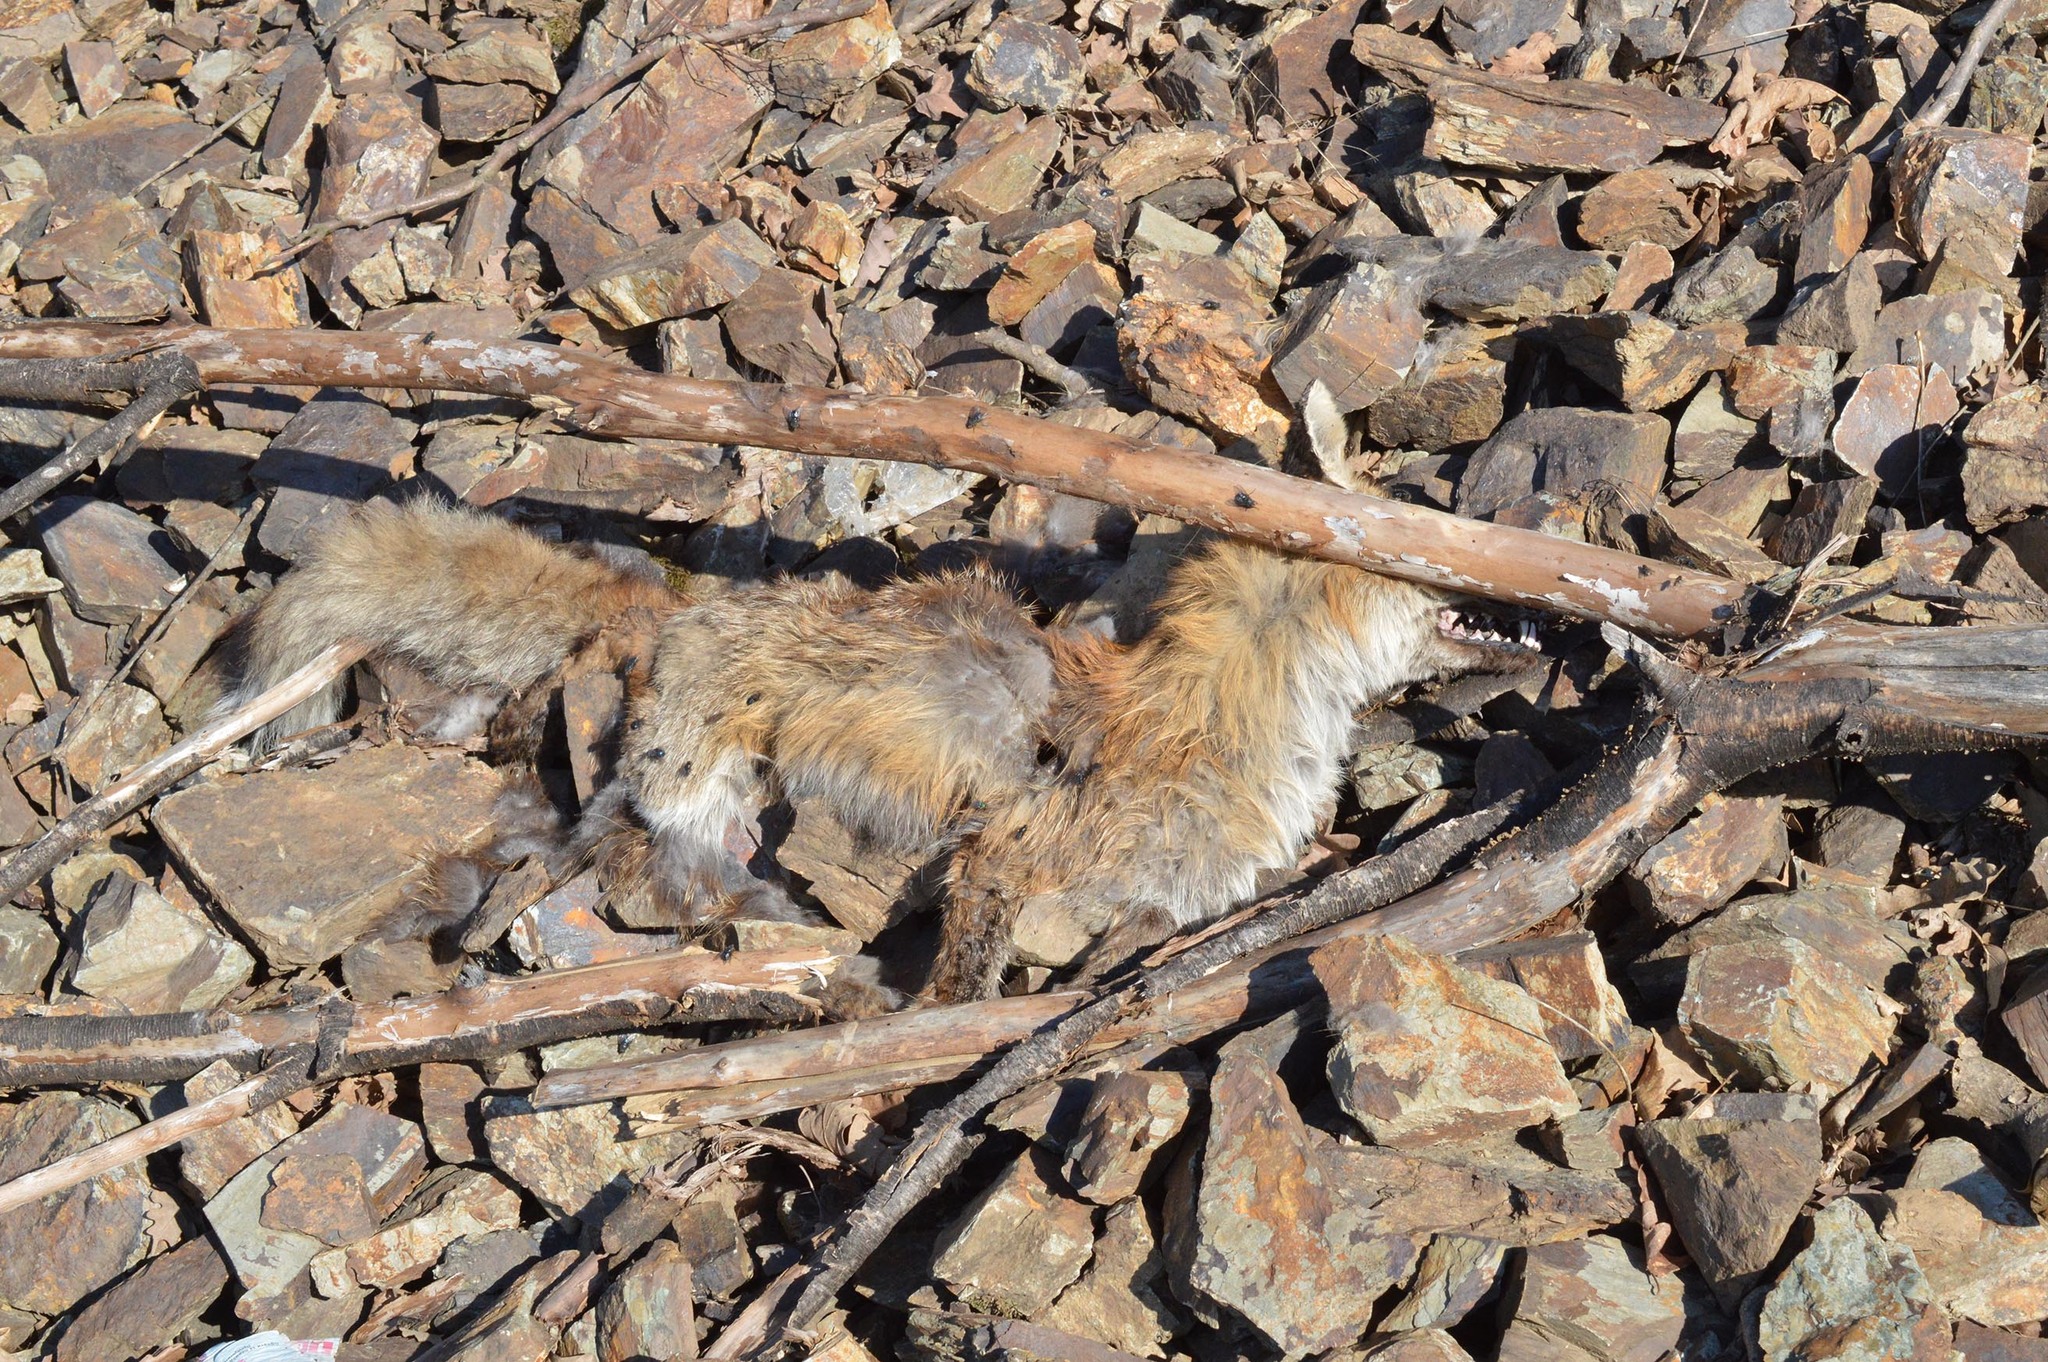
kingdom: Animalia
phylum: Chordata
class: Mammalia
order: Carnivora
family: Canidae
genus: Vulpes
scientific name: Vulpes vulpes
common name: Red fox
